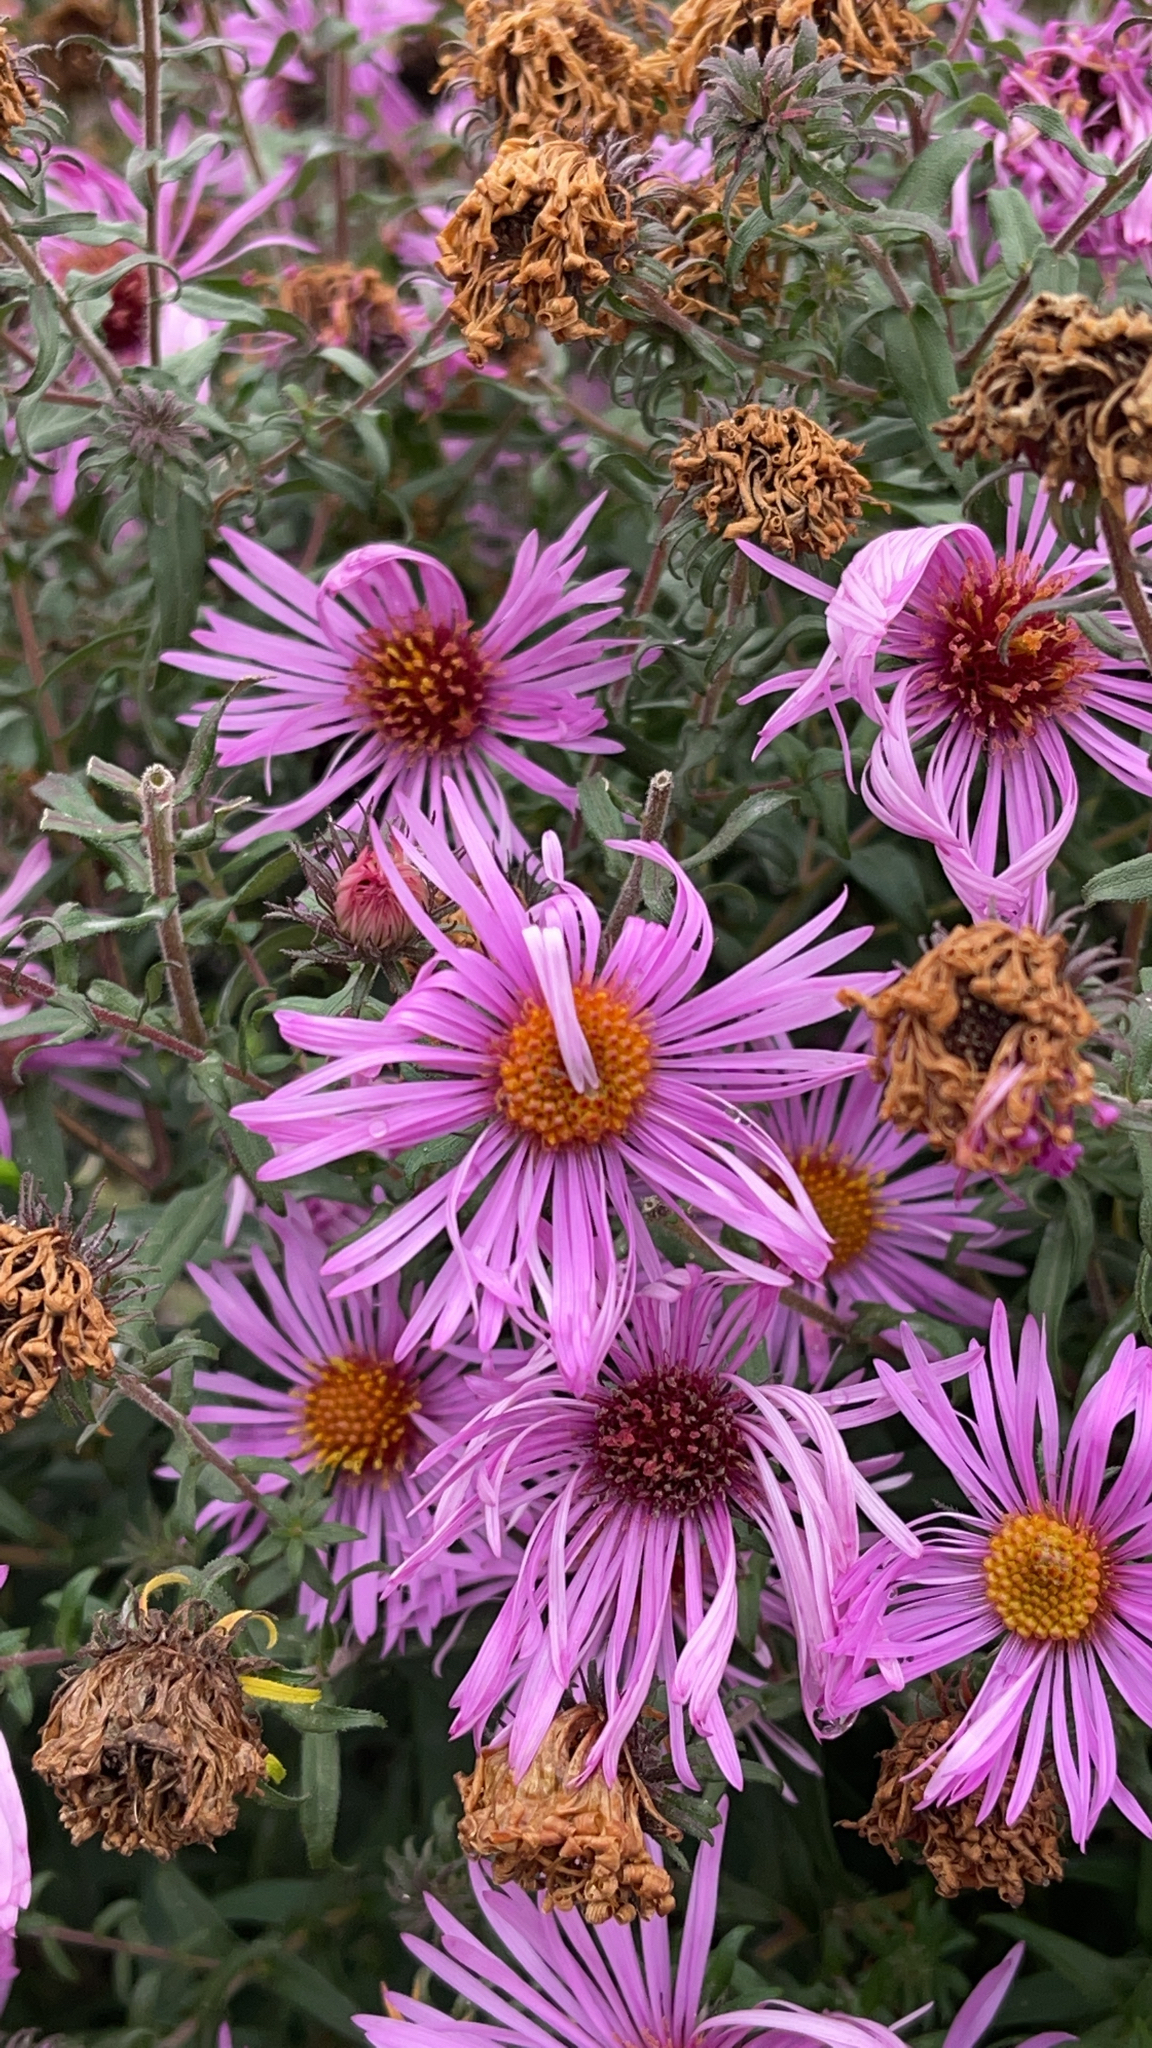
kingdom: Plantae
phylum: Tracheophyta
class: Magnoliopsida
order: Asterales
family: Asteraceae
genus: Symphyotrichum
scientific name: Symphyotrichum novae-angliae
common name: Michaelmas daisy
